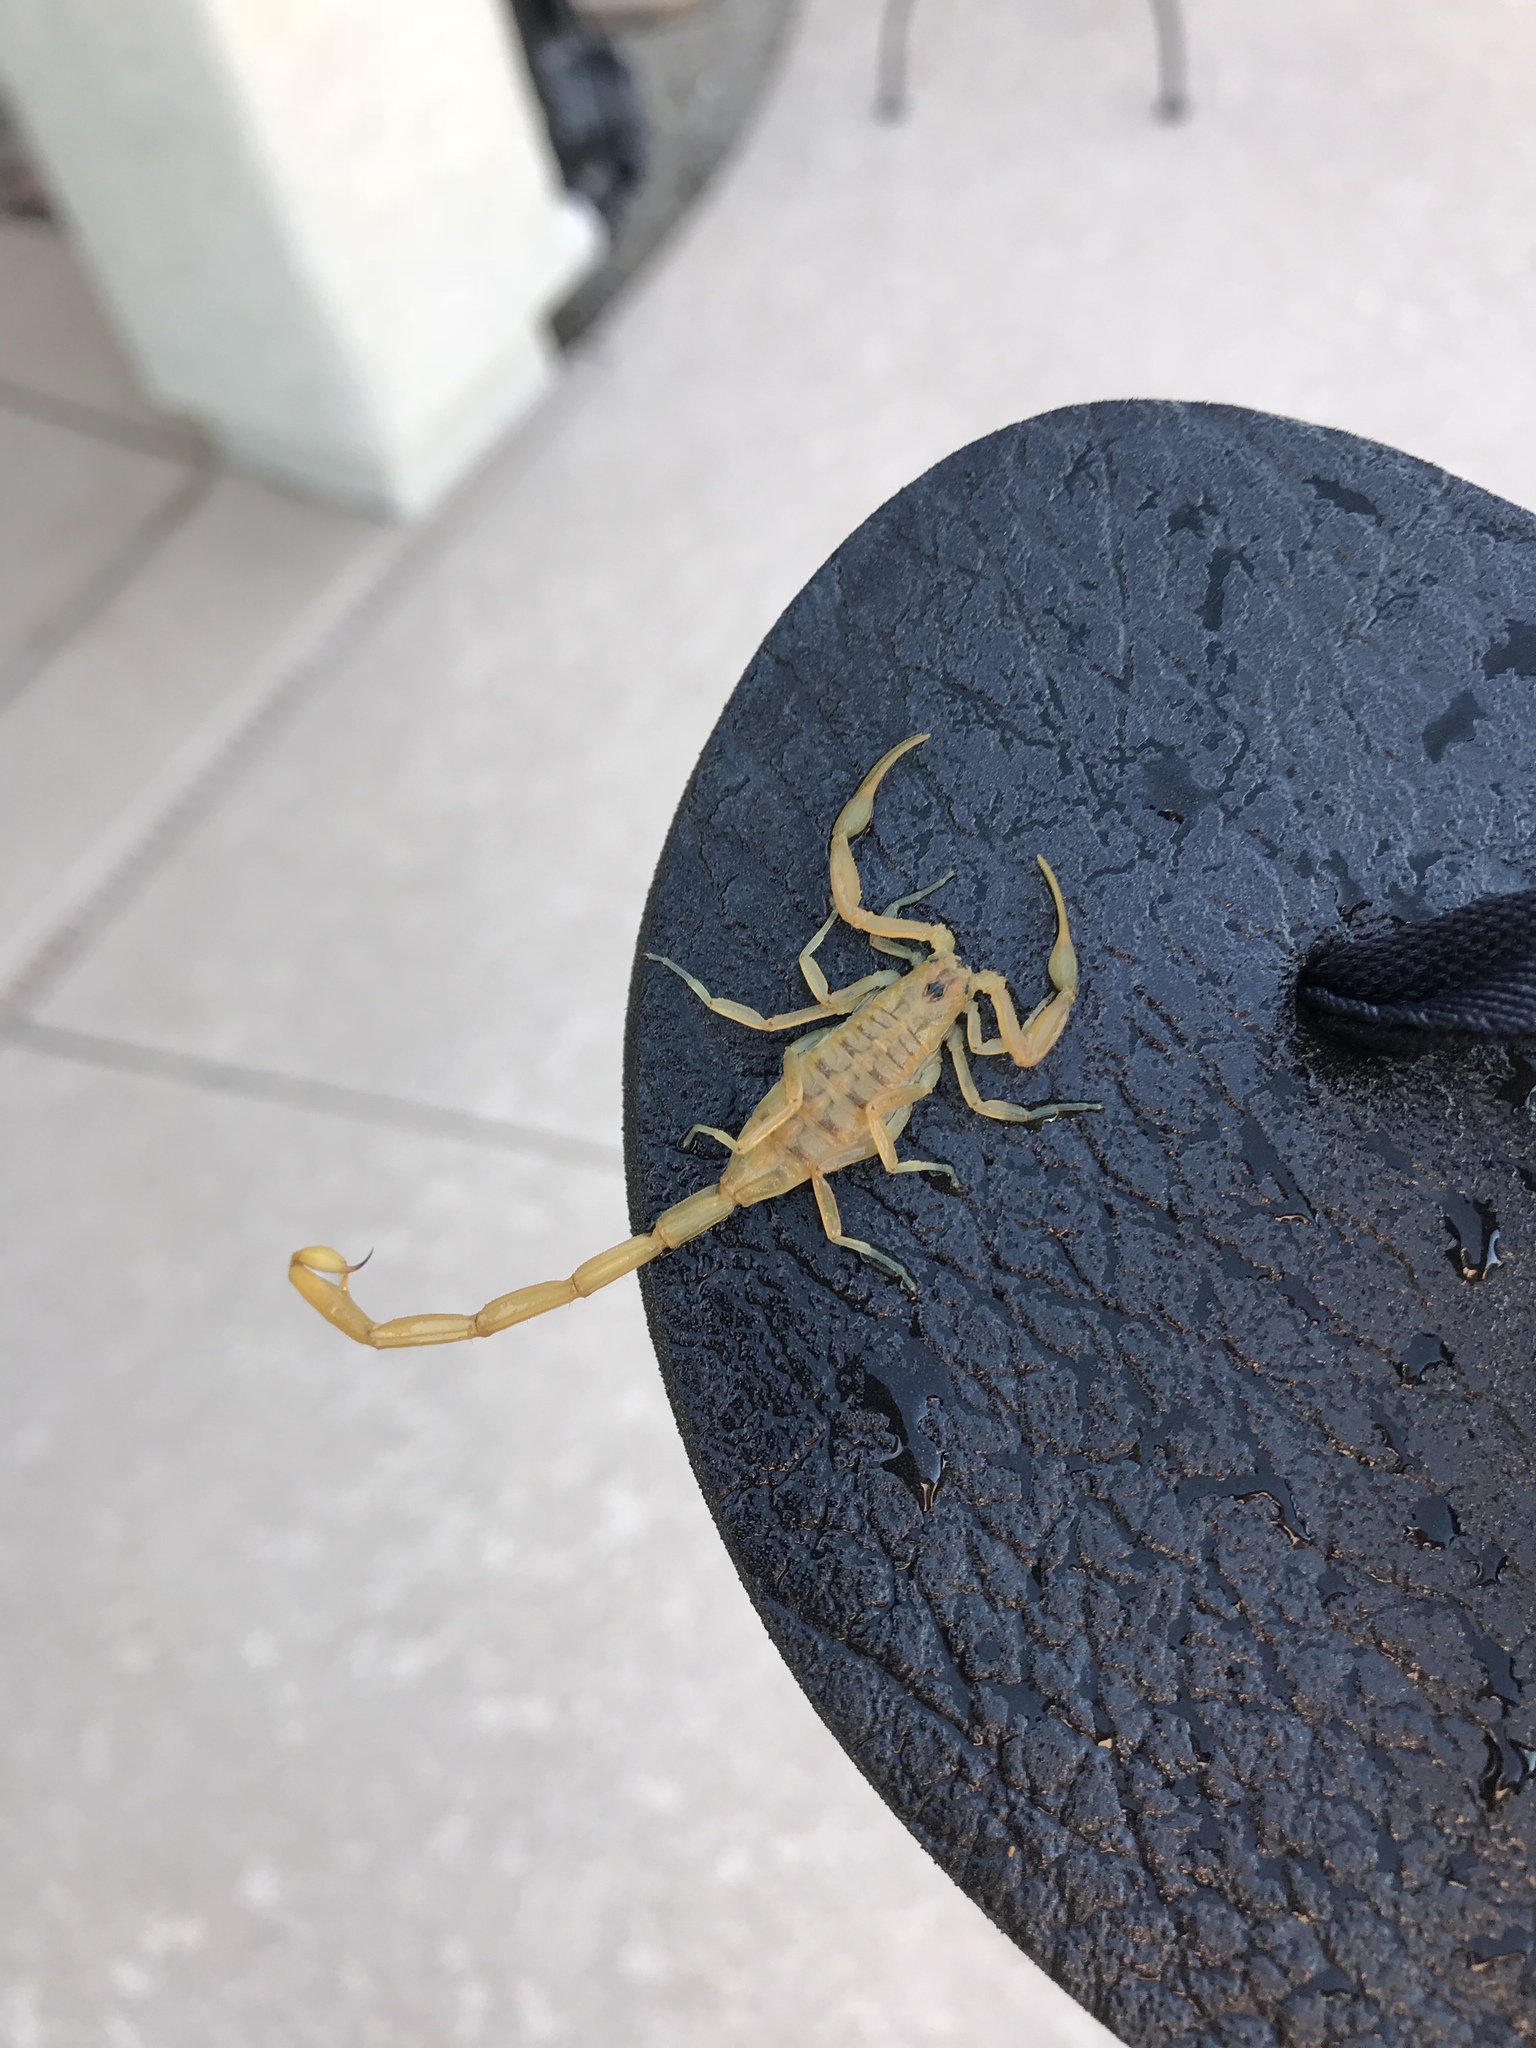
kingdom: Animalia
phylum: Arthropoda
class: Arachnida
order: Scorpiones
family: Buthidae
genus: Centruroides
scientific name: Centruroides sculpturatus
